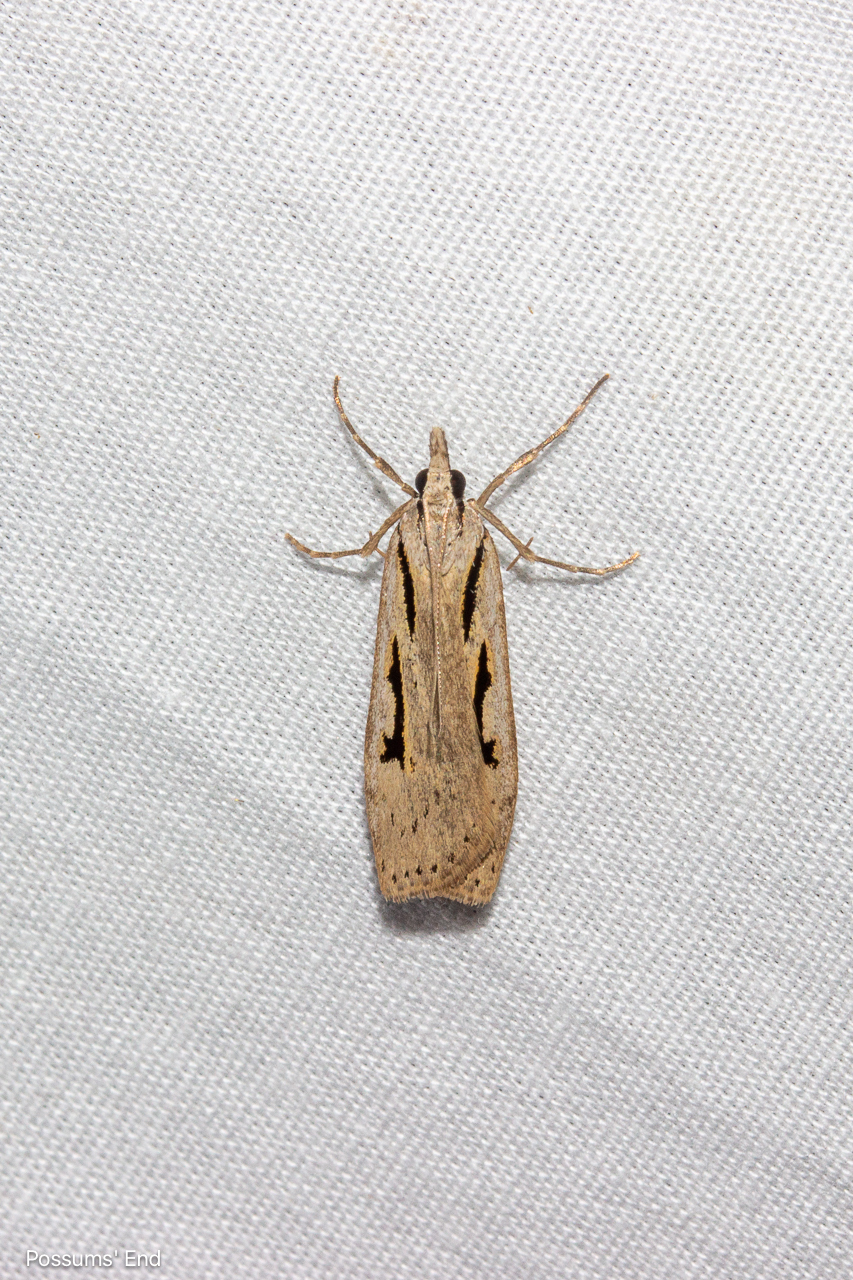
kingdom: Animalia
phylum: Arthropoda
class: Insecta
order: Lepidoptera
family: Crambidae
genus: Scoparia
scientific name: Scoparia rotuellus
